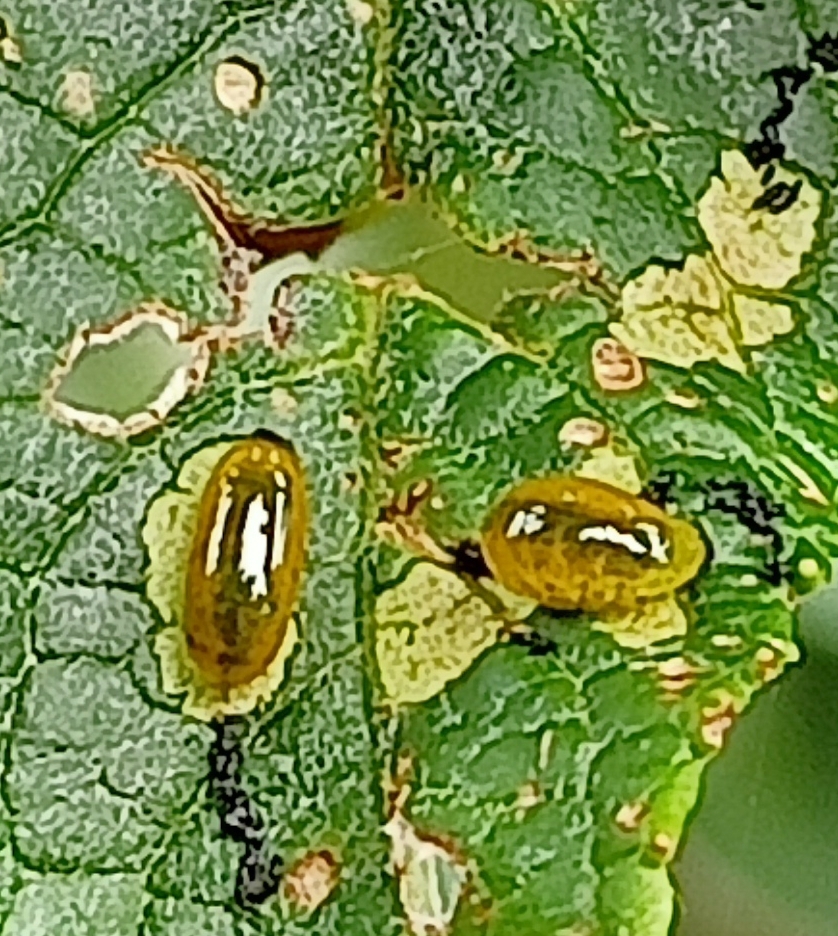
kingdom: Animalia
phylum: Arthropoda
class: Insecta
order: Coleoptera
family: Curculionidae
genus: Cleopus
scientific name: Cleopus japonicus
